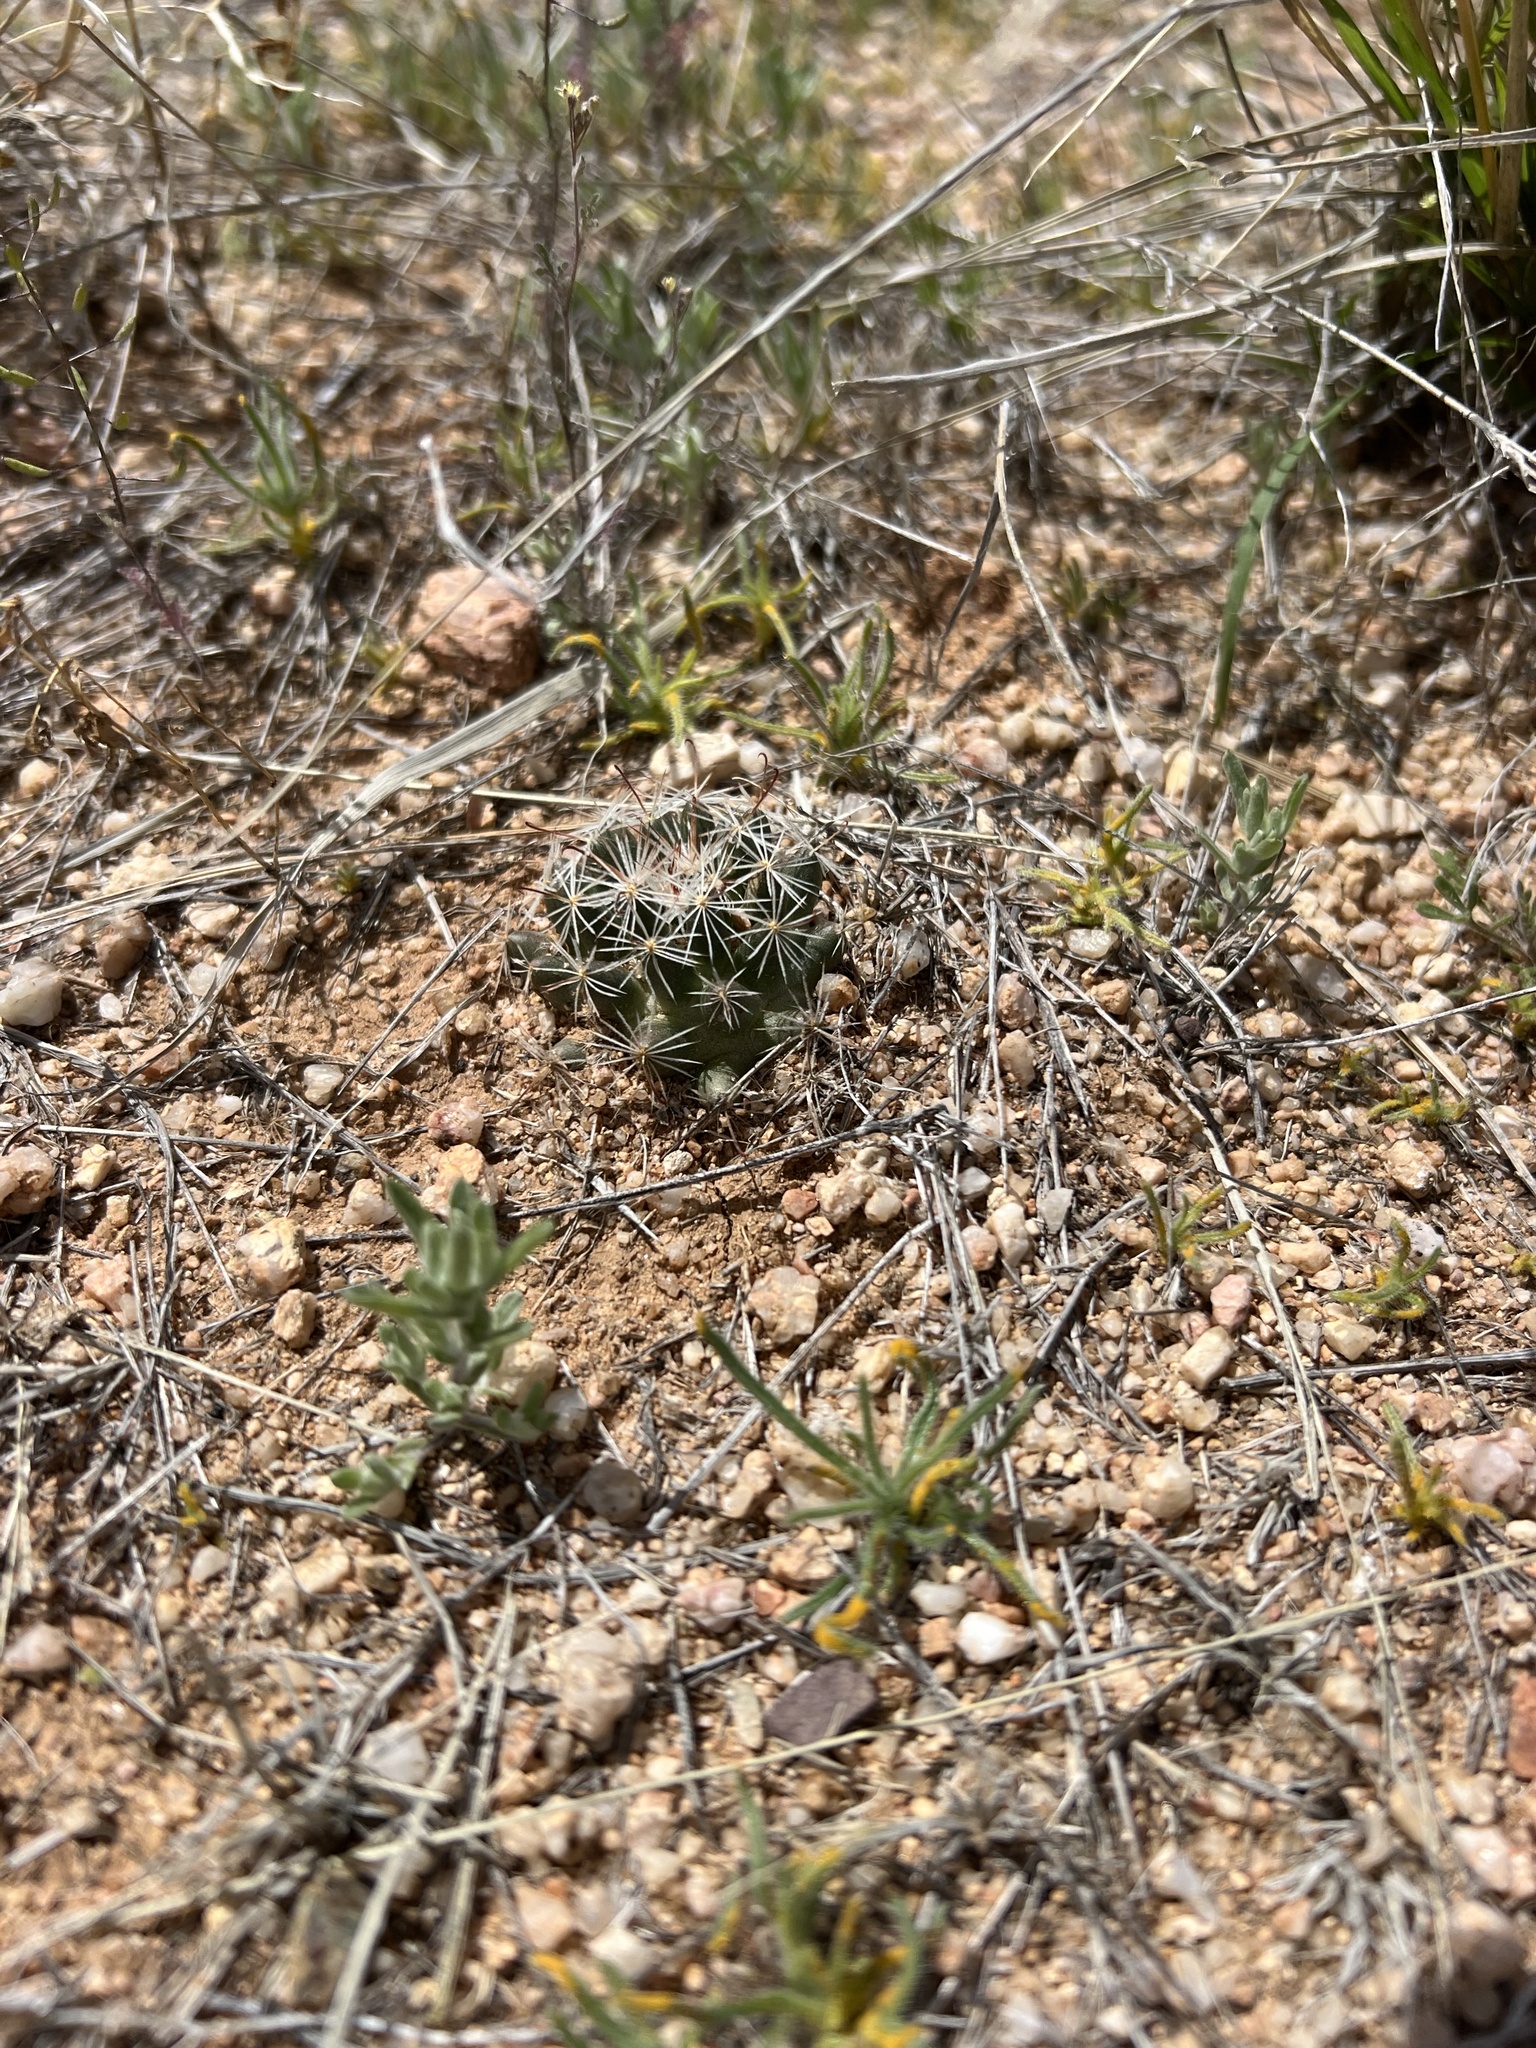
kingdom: Plantae
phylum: Tracheophyta
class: Magnoliopsida
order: Caryophyllales
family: Cactaceae
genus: Cochemiea
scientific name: Cochemiea wrightii
